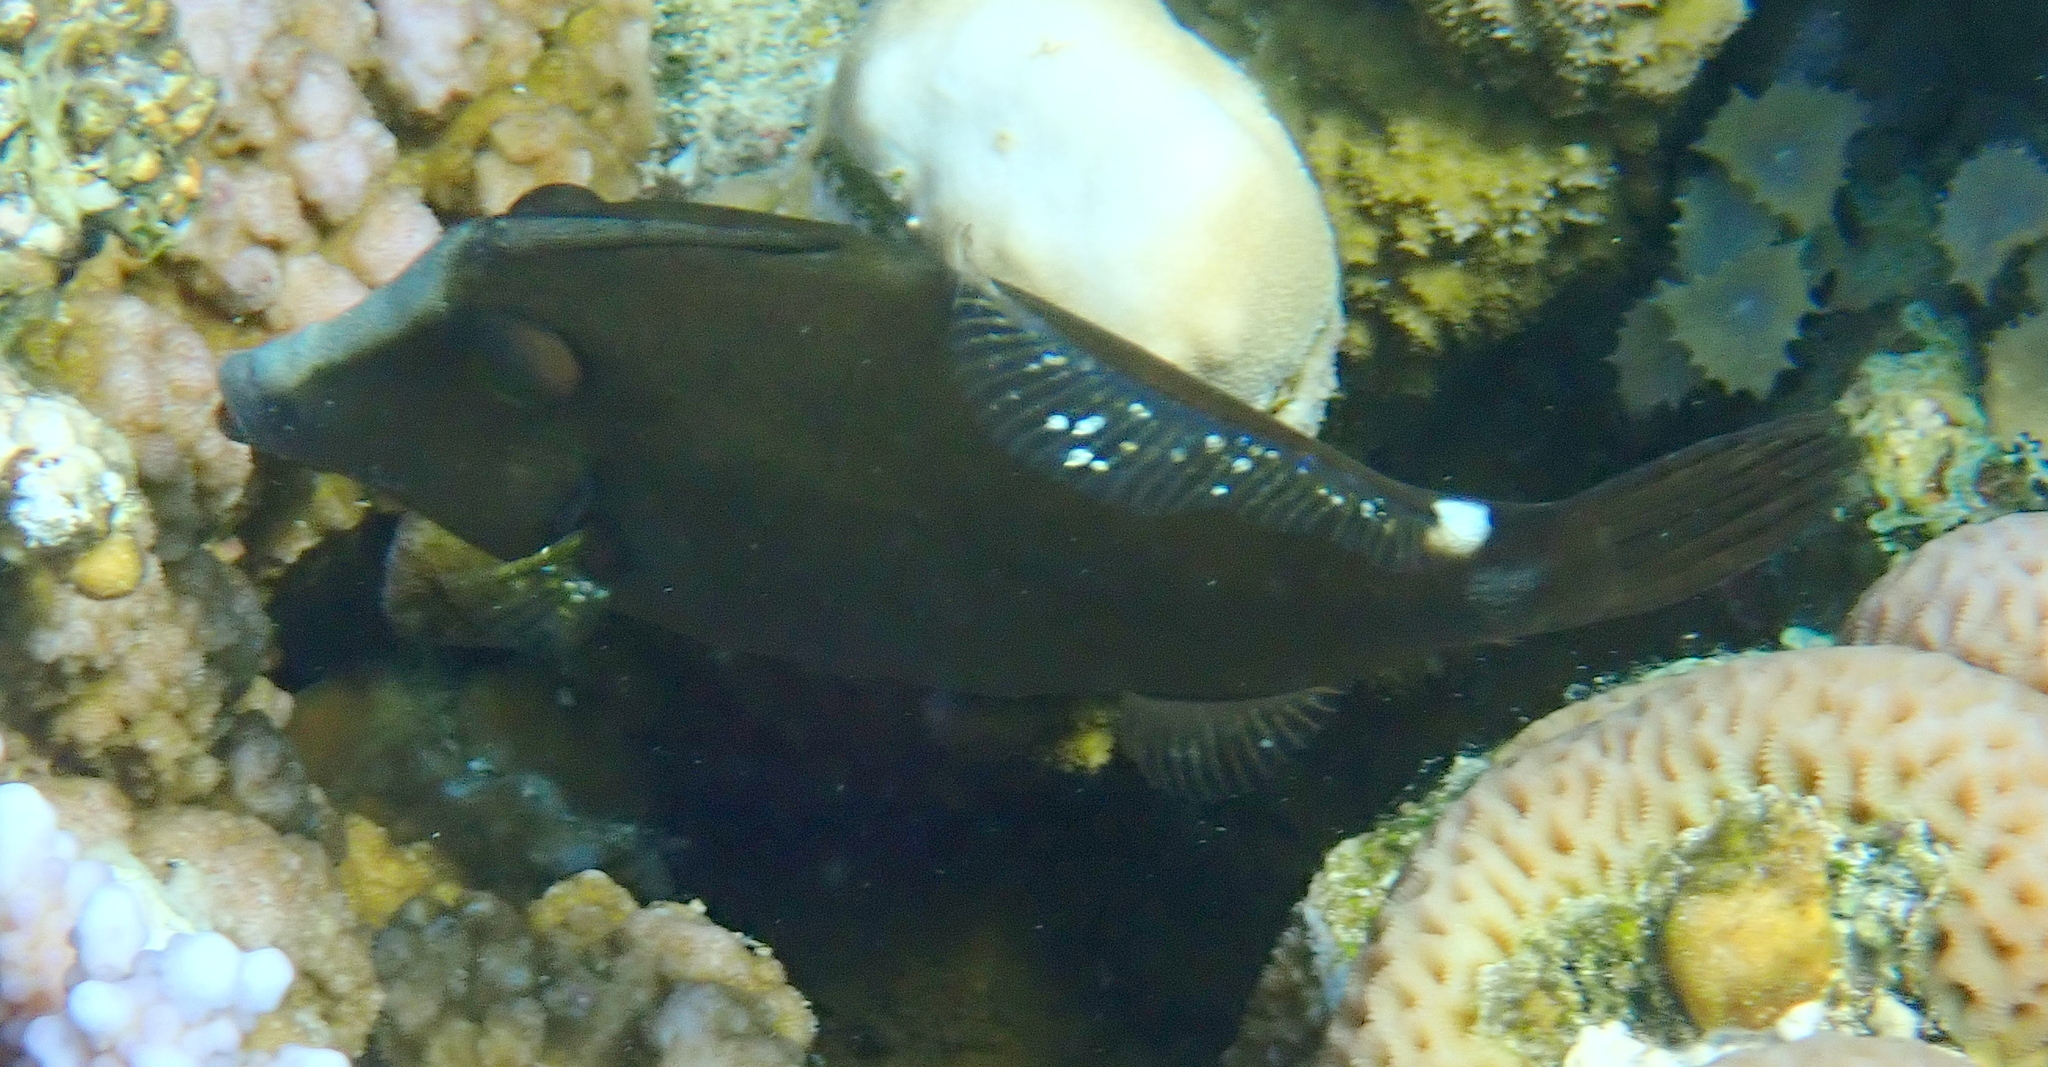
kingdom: Animalia
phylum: Chordata
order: Tetraodontiformes
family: Monacanthidae
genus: Cantherhines
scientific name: Cantherhines pardalis
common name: Honeycomb filefish
